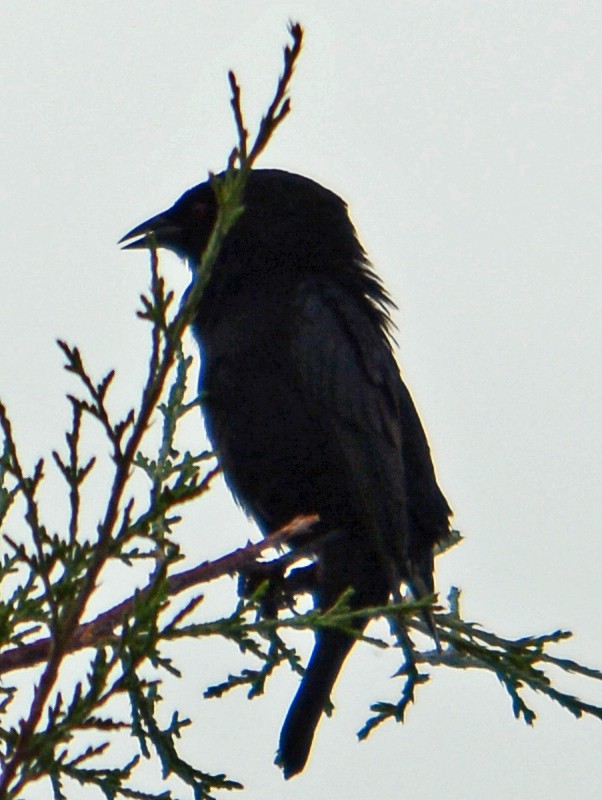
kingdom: Animalia
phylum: Chordata
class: Aves
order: Passeriformes
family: Icteridae
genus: Molothrus
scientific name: Molothrus aeneus
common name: Bronzed cowbird
